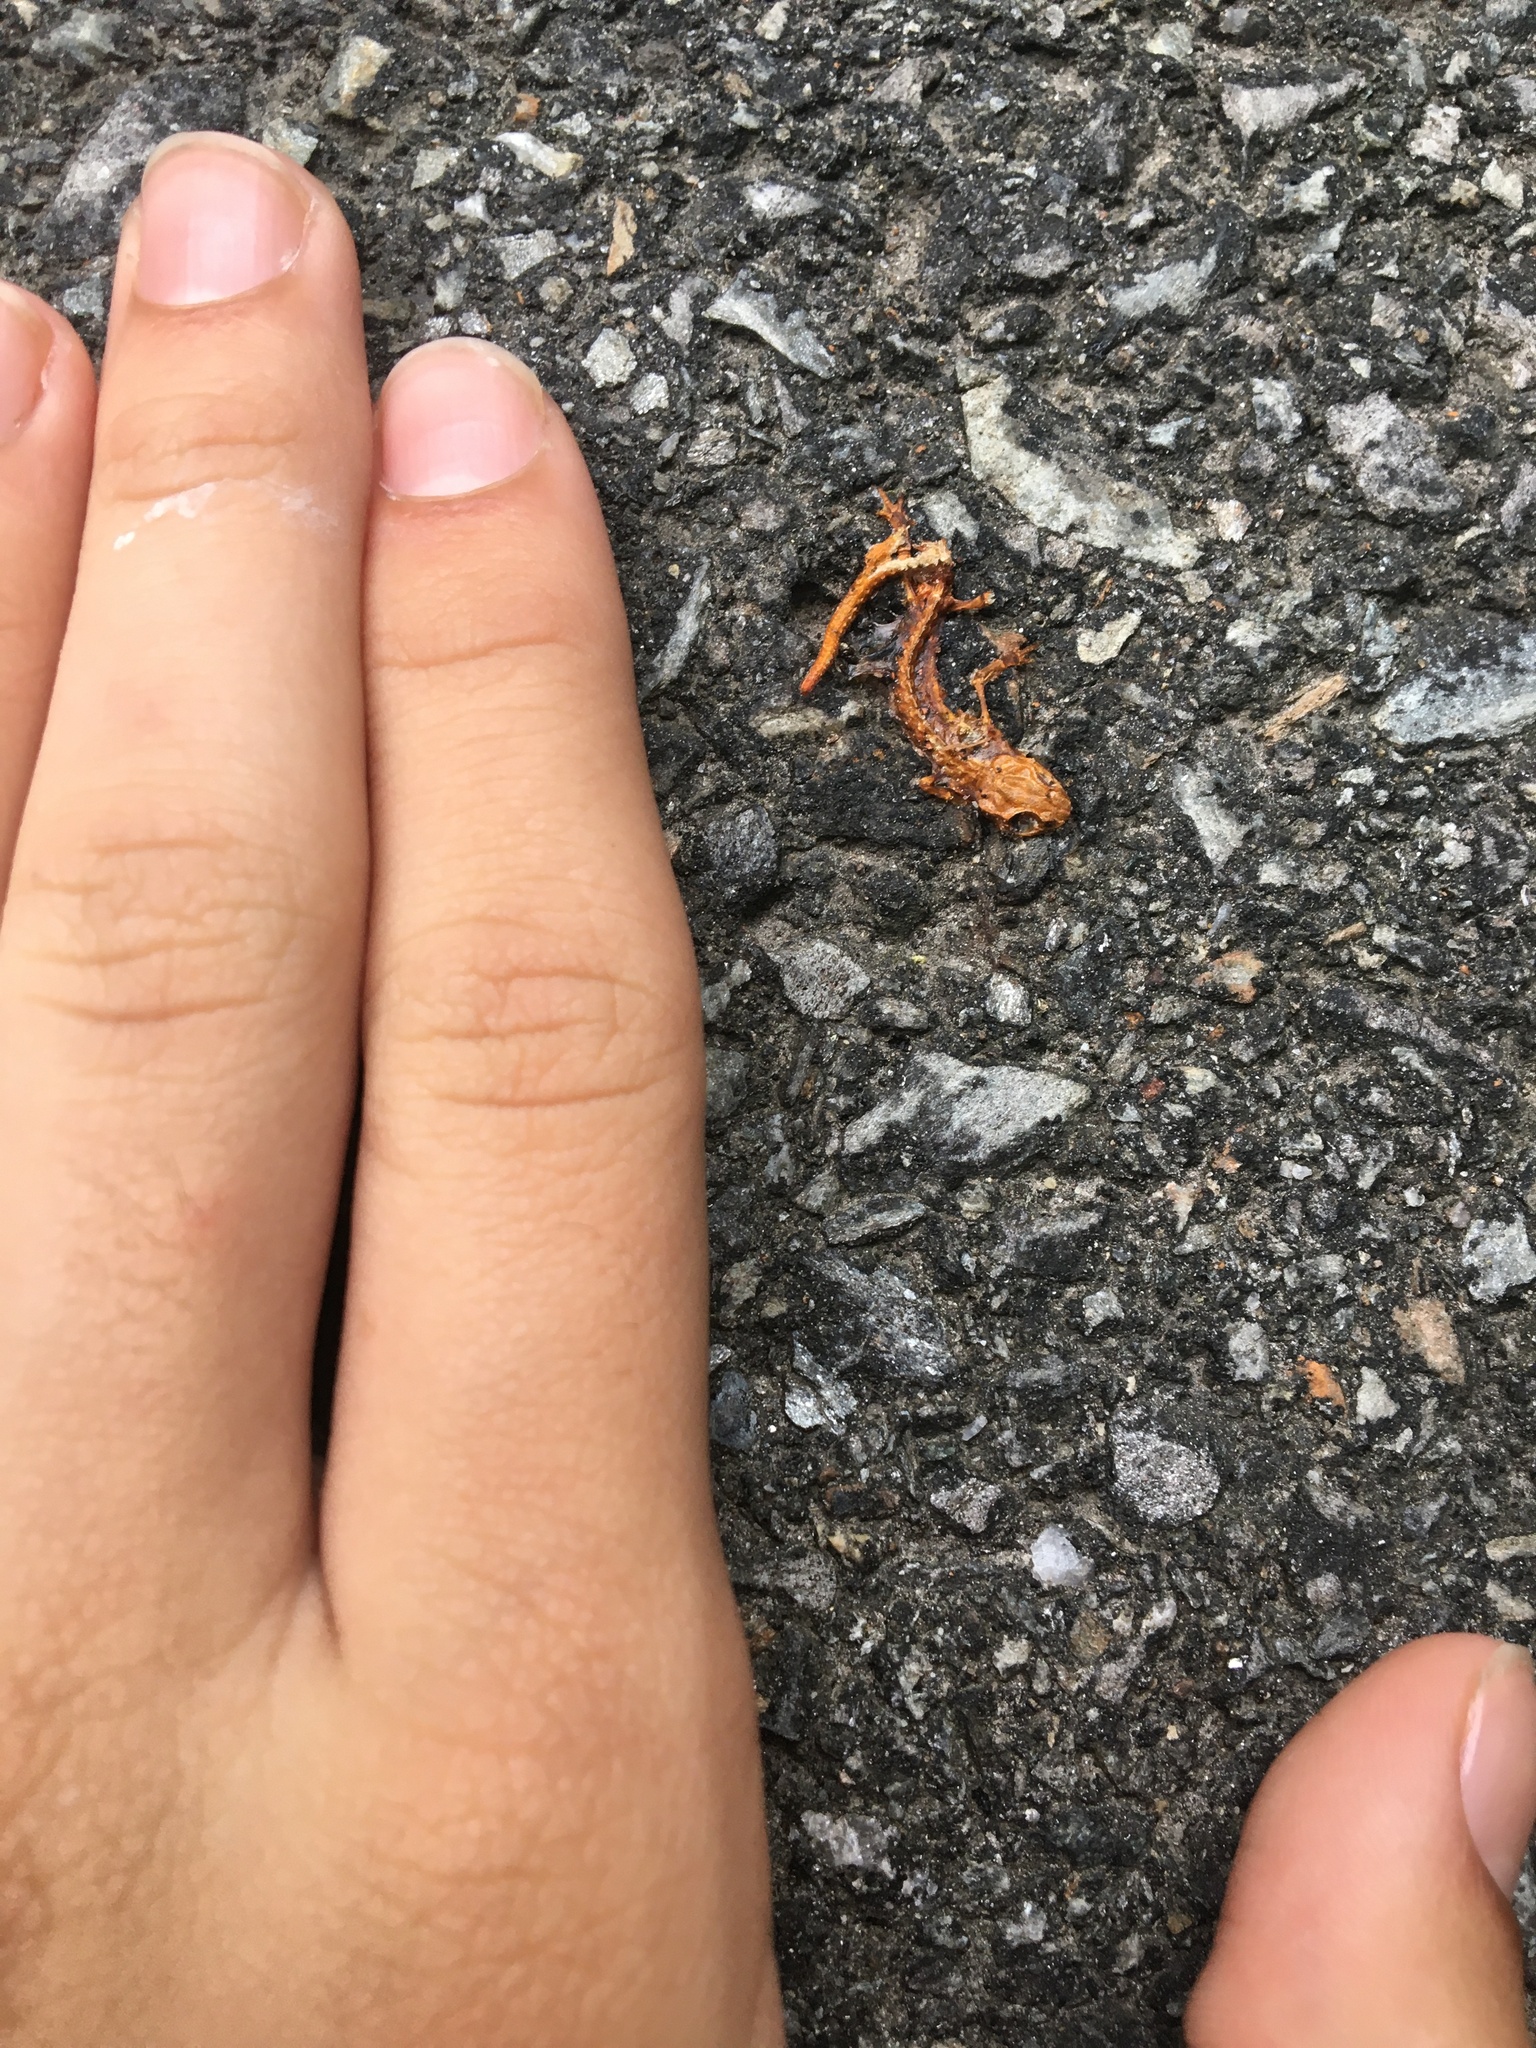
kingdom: Animalia
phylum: Chordata
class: Amphibia
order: Caudata
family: Salamandridae
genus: Notophthalmus
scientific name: Notophthalmus viridescens
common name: Eastern newt
